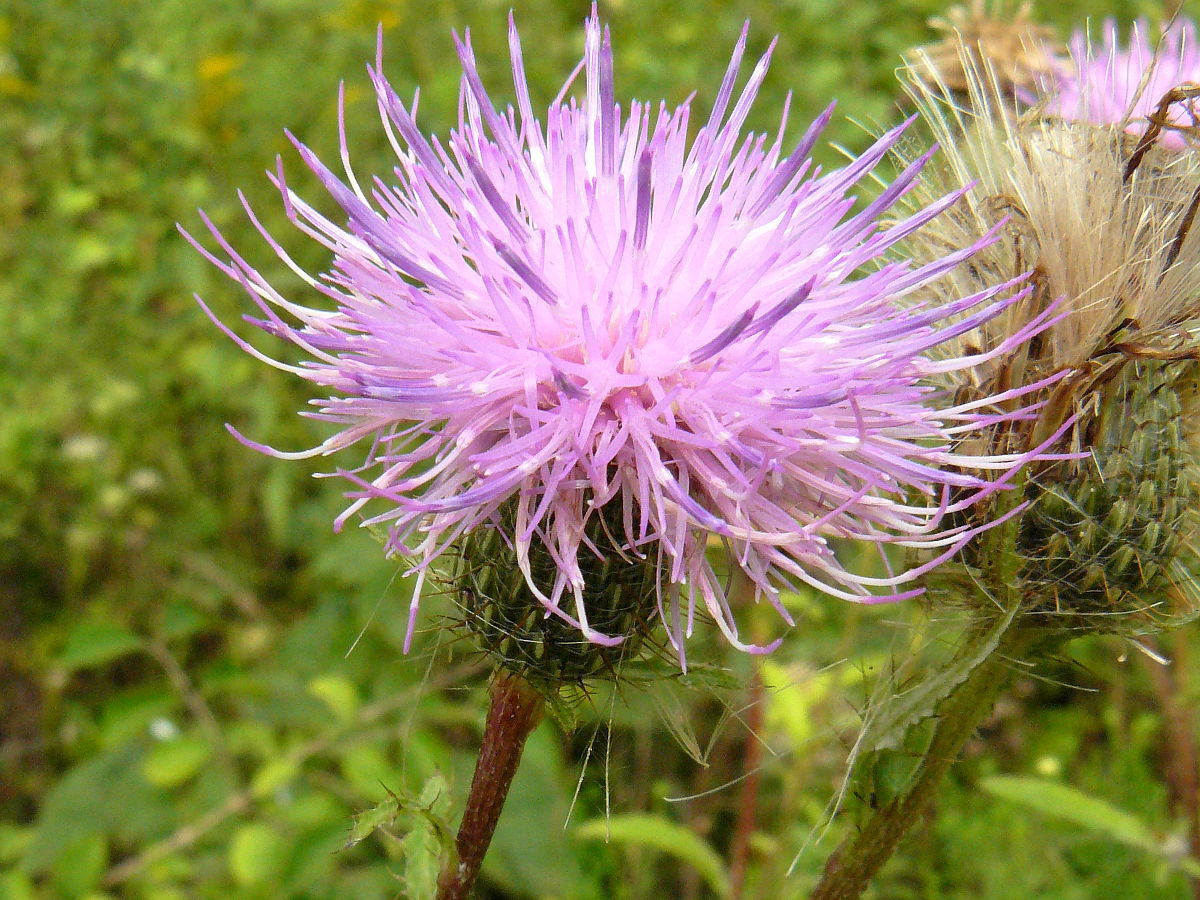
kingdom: Plantae
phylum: Tracheophyta
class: Magnoliopsida
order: Asterales
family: Asteraceae
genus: Cirsium
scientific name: Cirsium altissimum
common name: Roadside thistle
